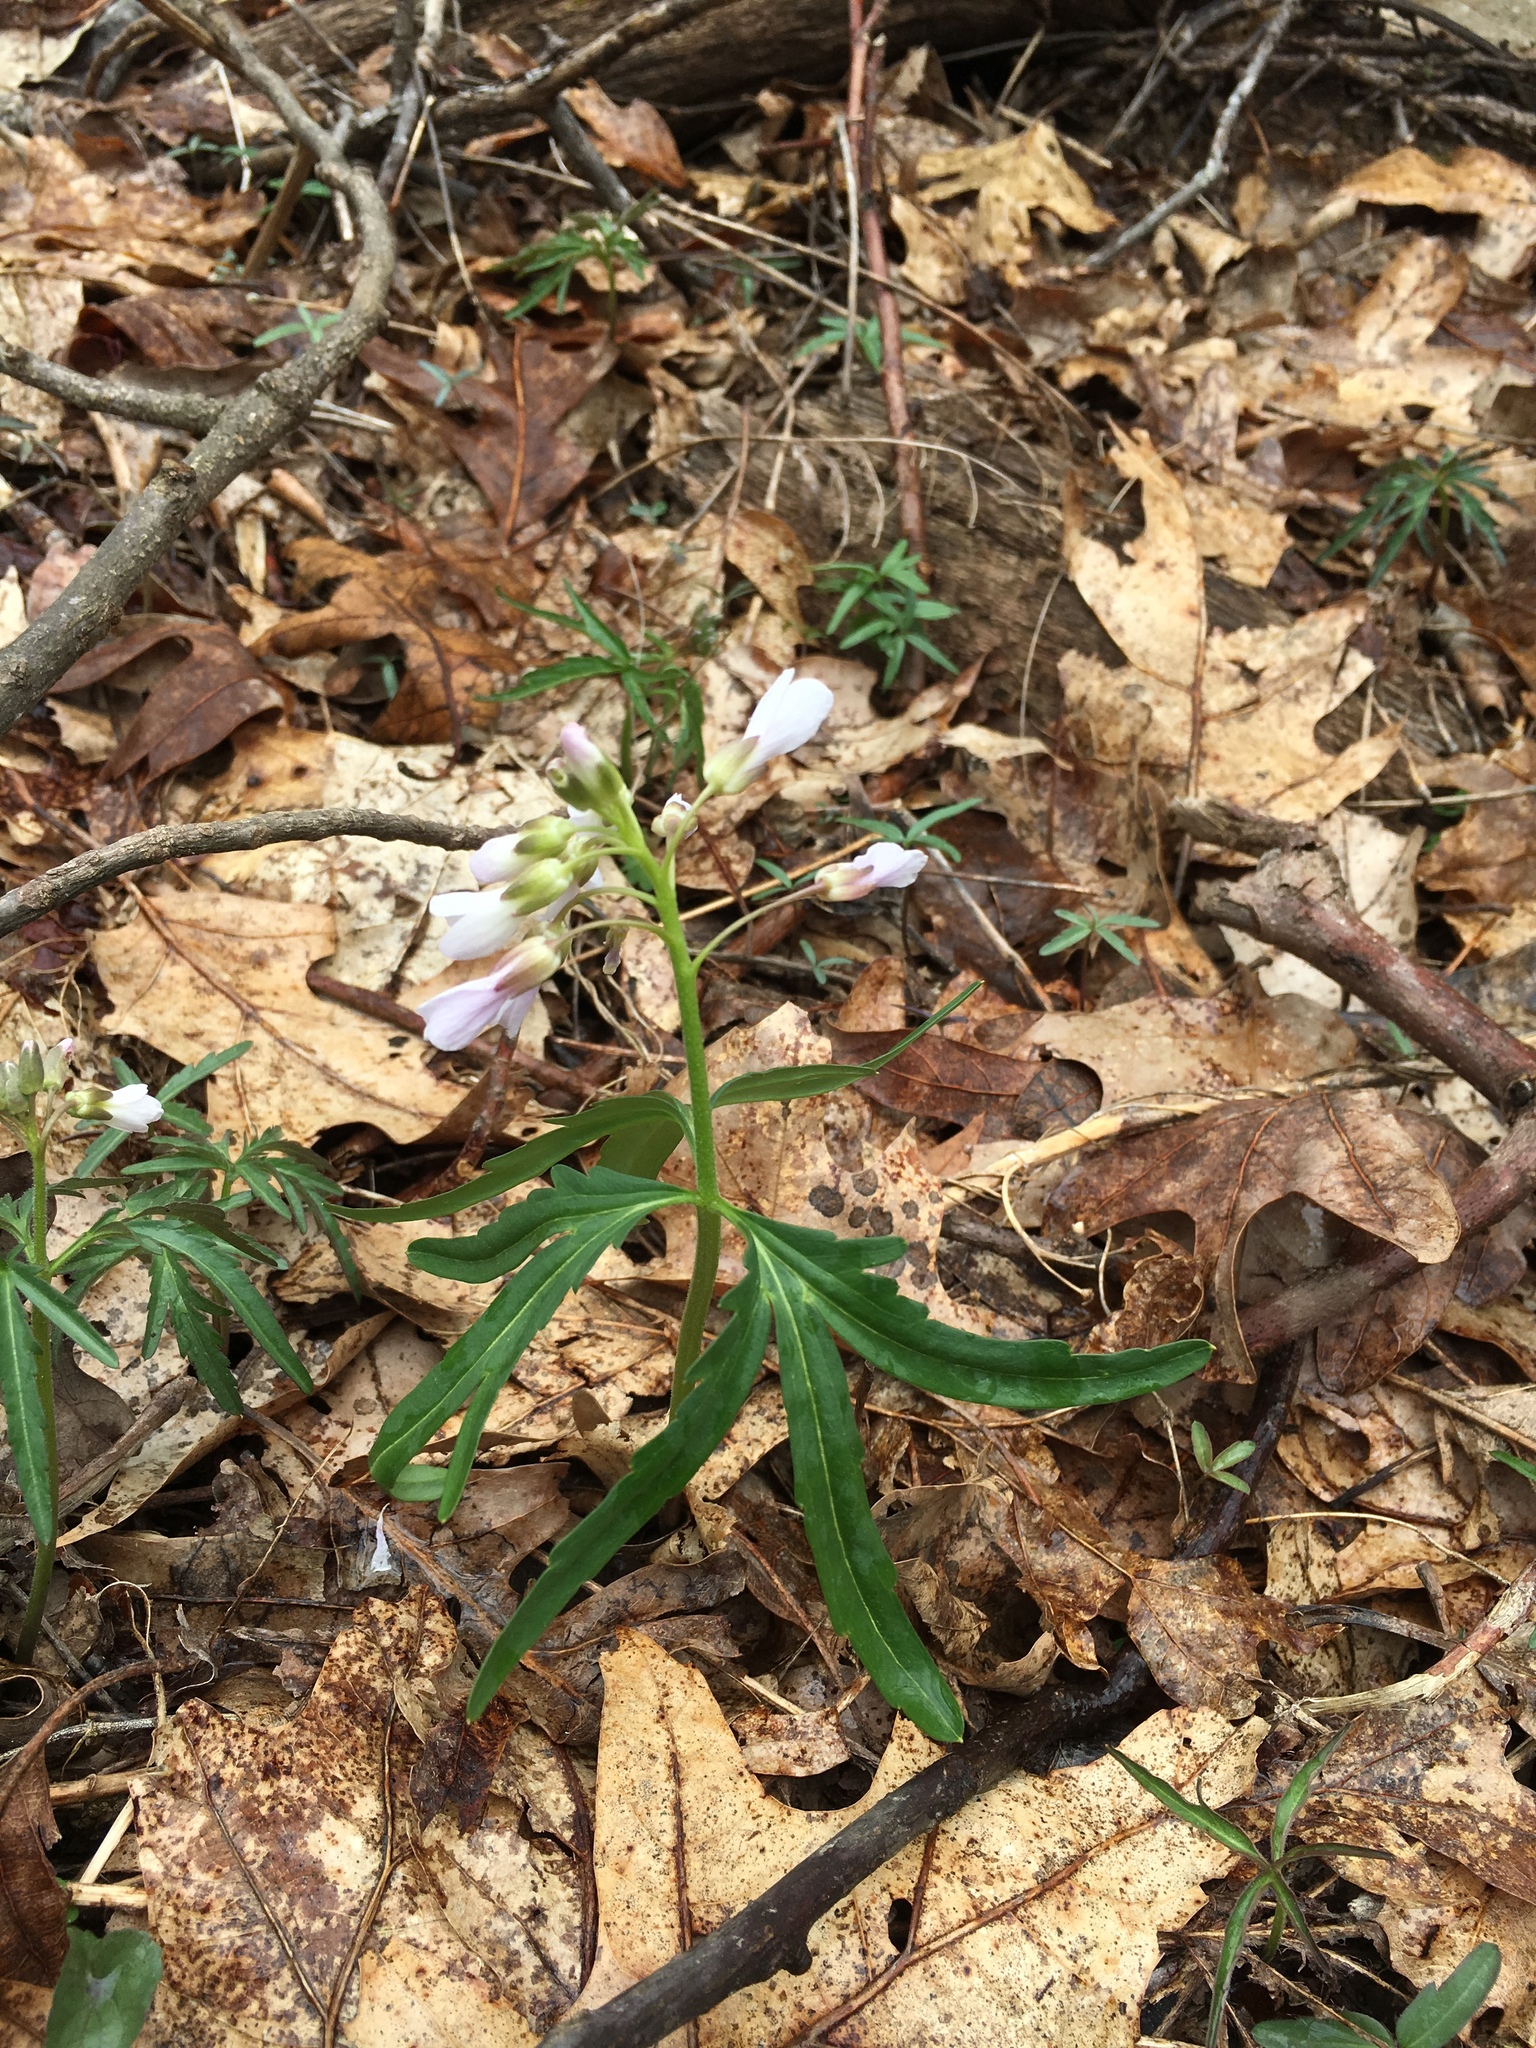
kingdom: Plantae
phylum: Tracheophyta
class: Magnoliopsida
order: Brassicales
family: Brassicaceae
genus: Cardamine
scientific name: Cardamine concatenata
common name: Cut-leaf toothcup
